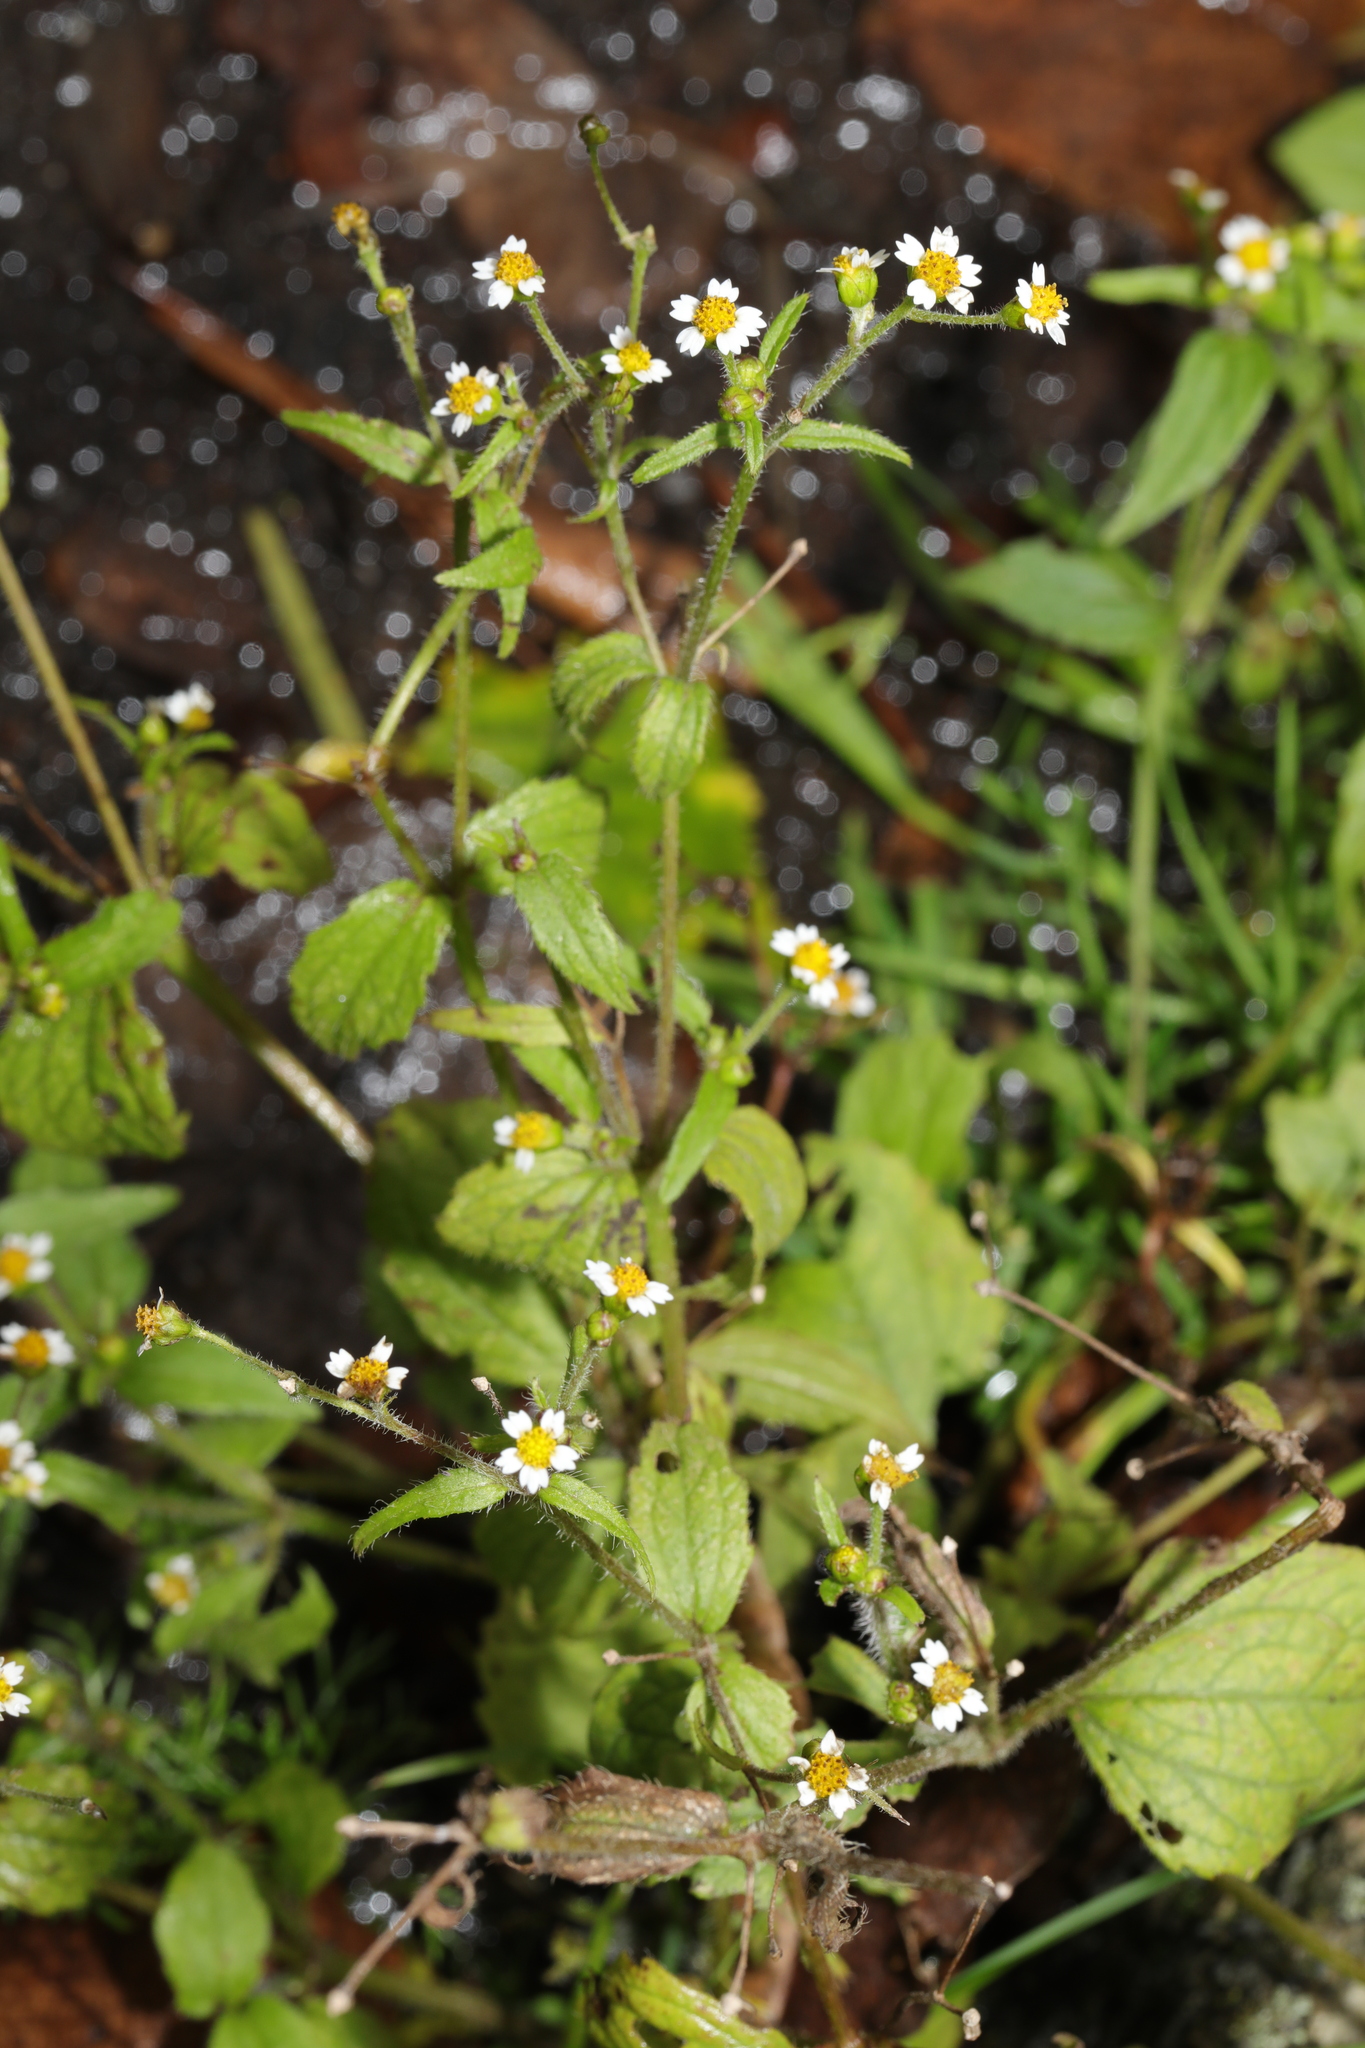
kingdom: Plantae
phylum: Tracheophyta
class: Magnoliopsida
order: Asterales
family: Asteraceae
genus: Galinsoga
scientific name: Galinsoga quadriradiata
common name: Shaggy soldier
